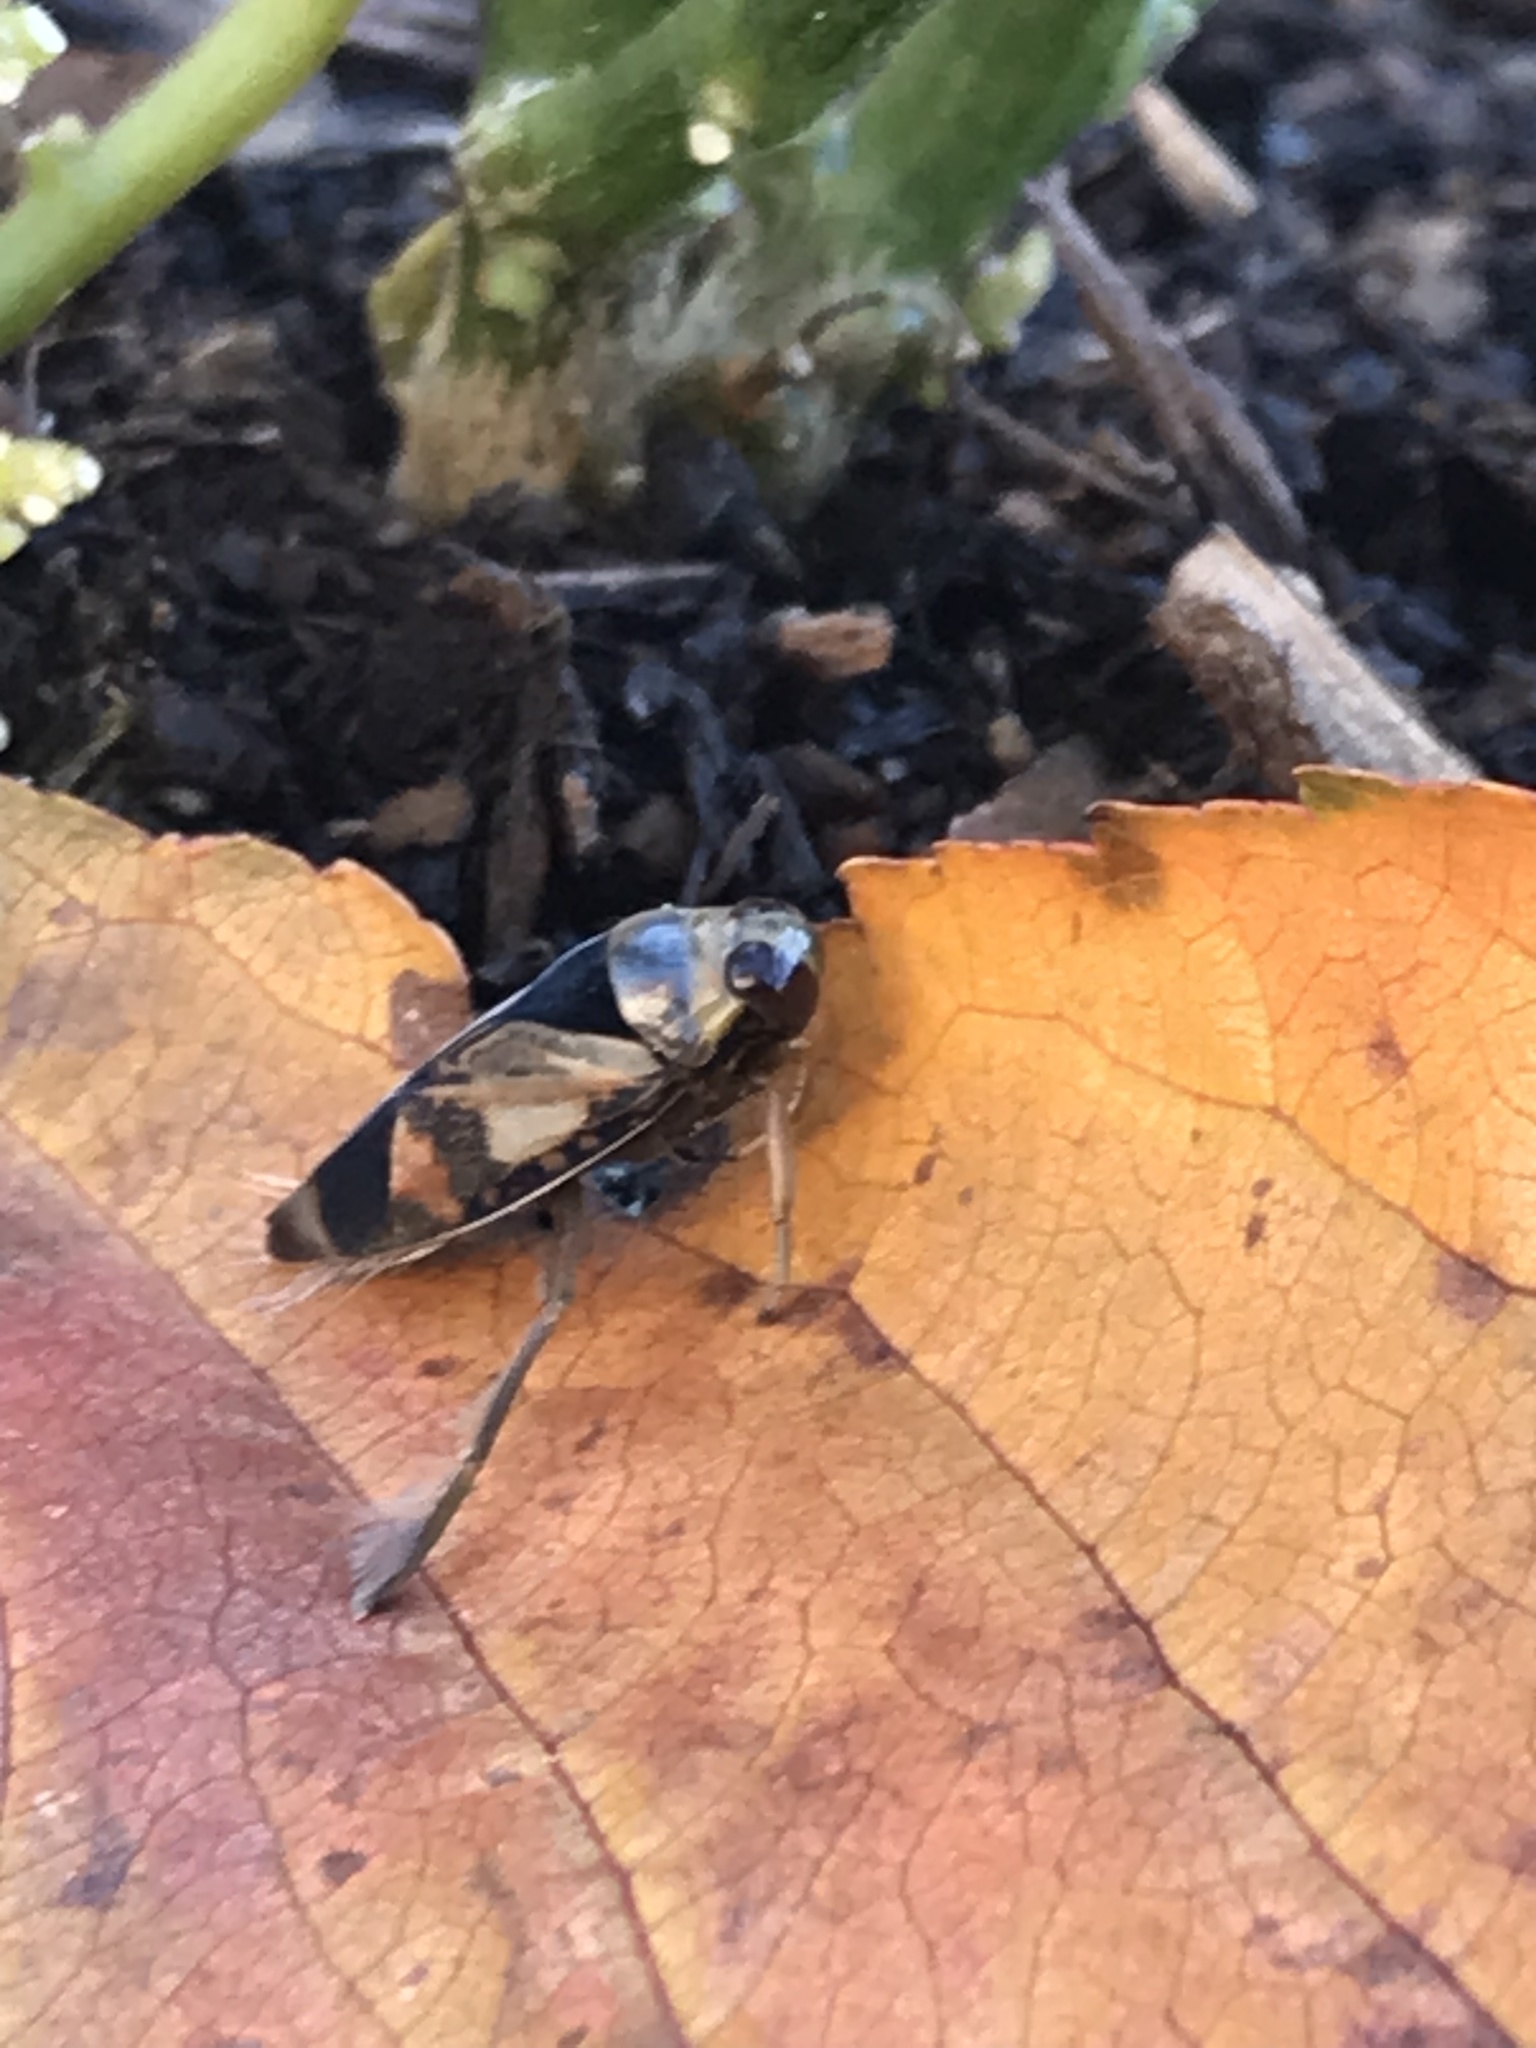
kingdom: Animalia
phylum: Arthropoda
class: Insecta
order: Hemiptera
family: Notonectidae
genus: Notonecta
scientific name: Notonecta kirbyi
